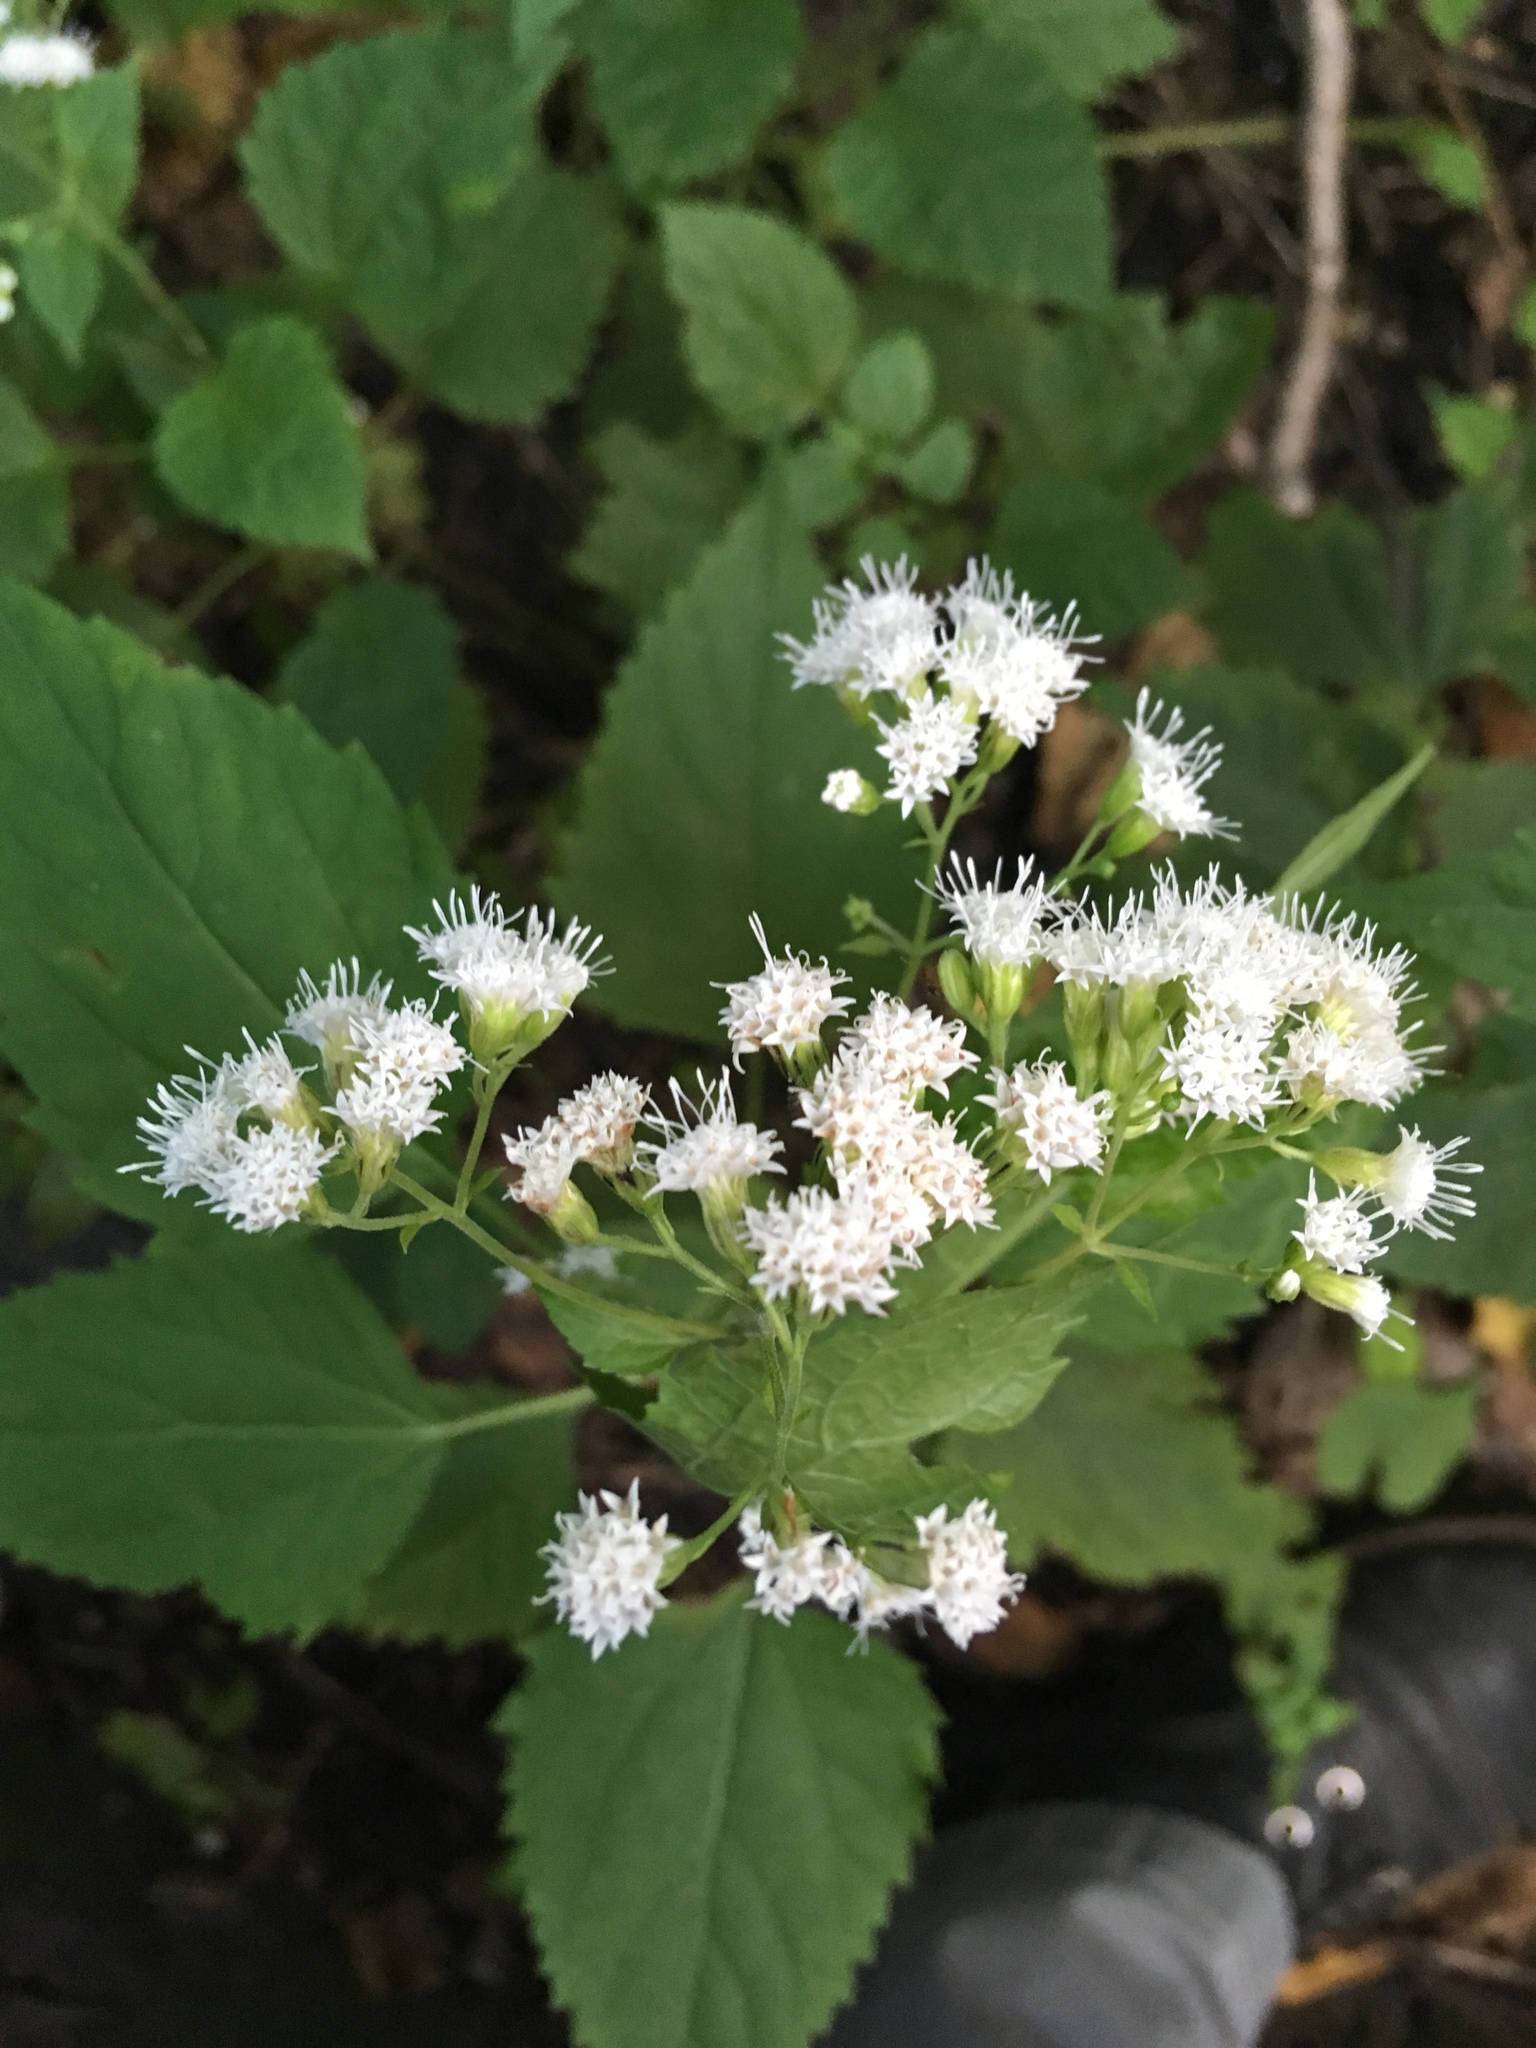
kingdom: Plantae
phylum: Tracheophyta
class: Magnoliopsida
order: Asterales
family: Asteraceae
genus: Ageratina
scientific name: Ageratina altissima
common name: White snakeroot
